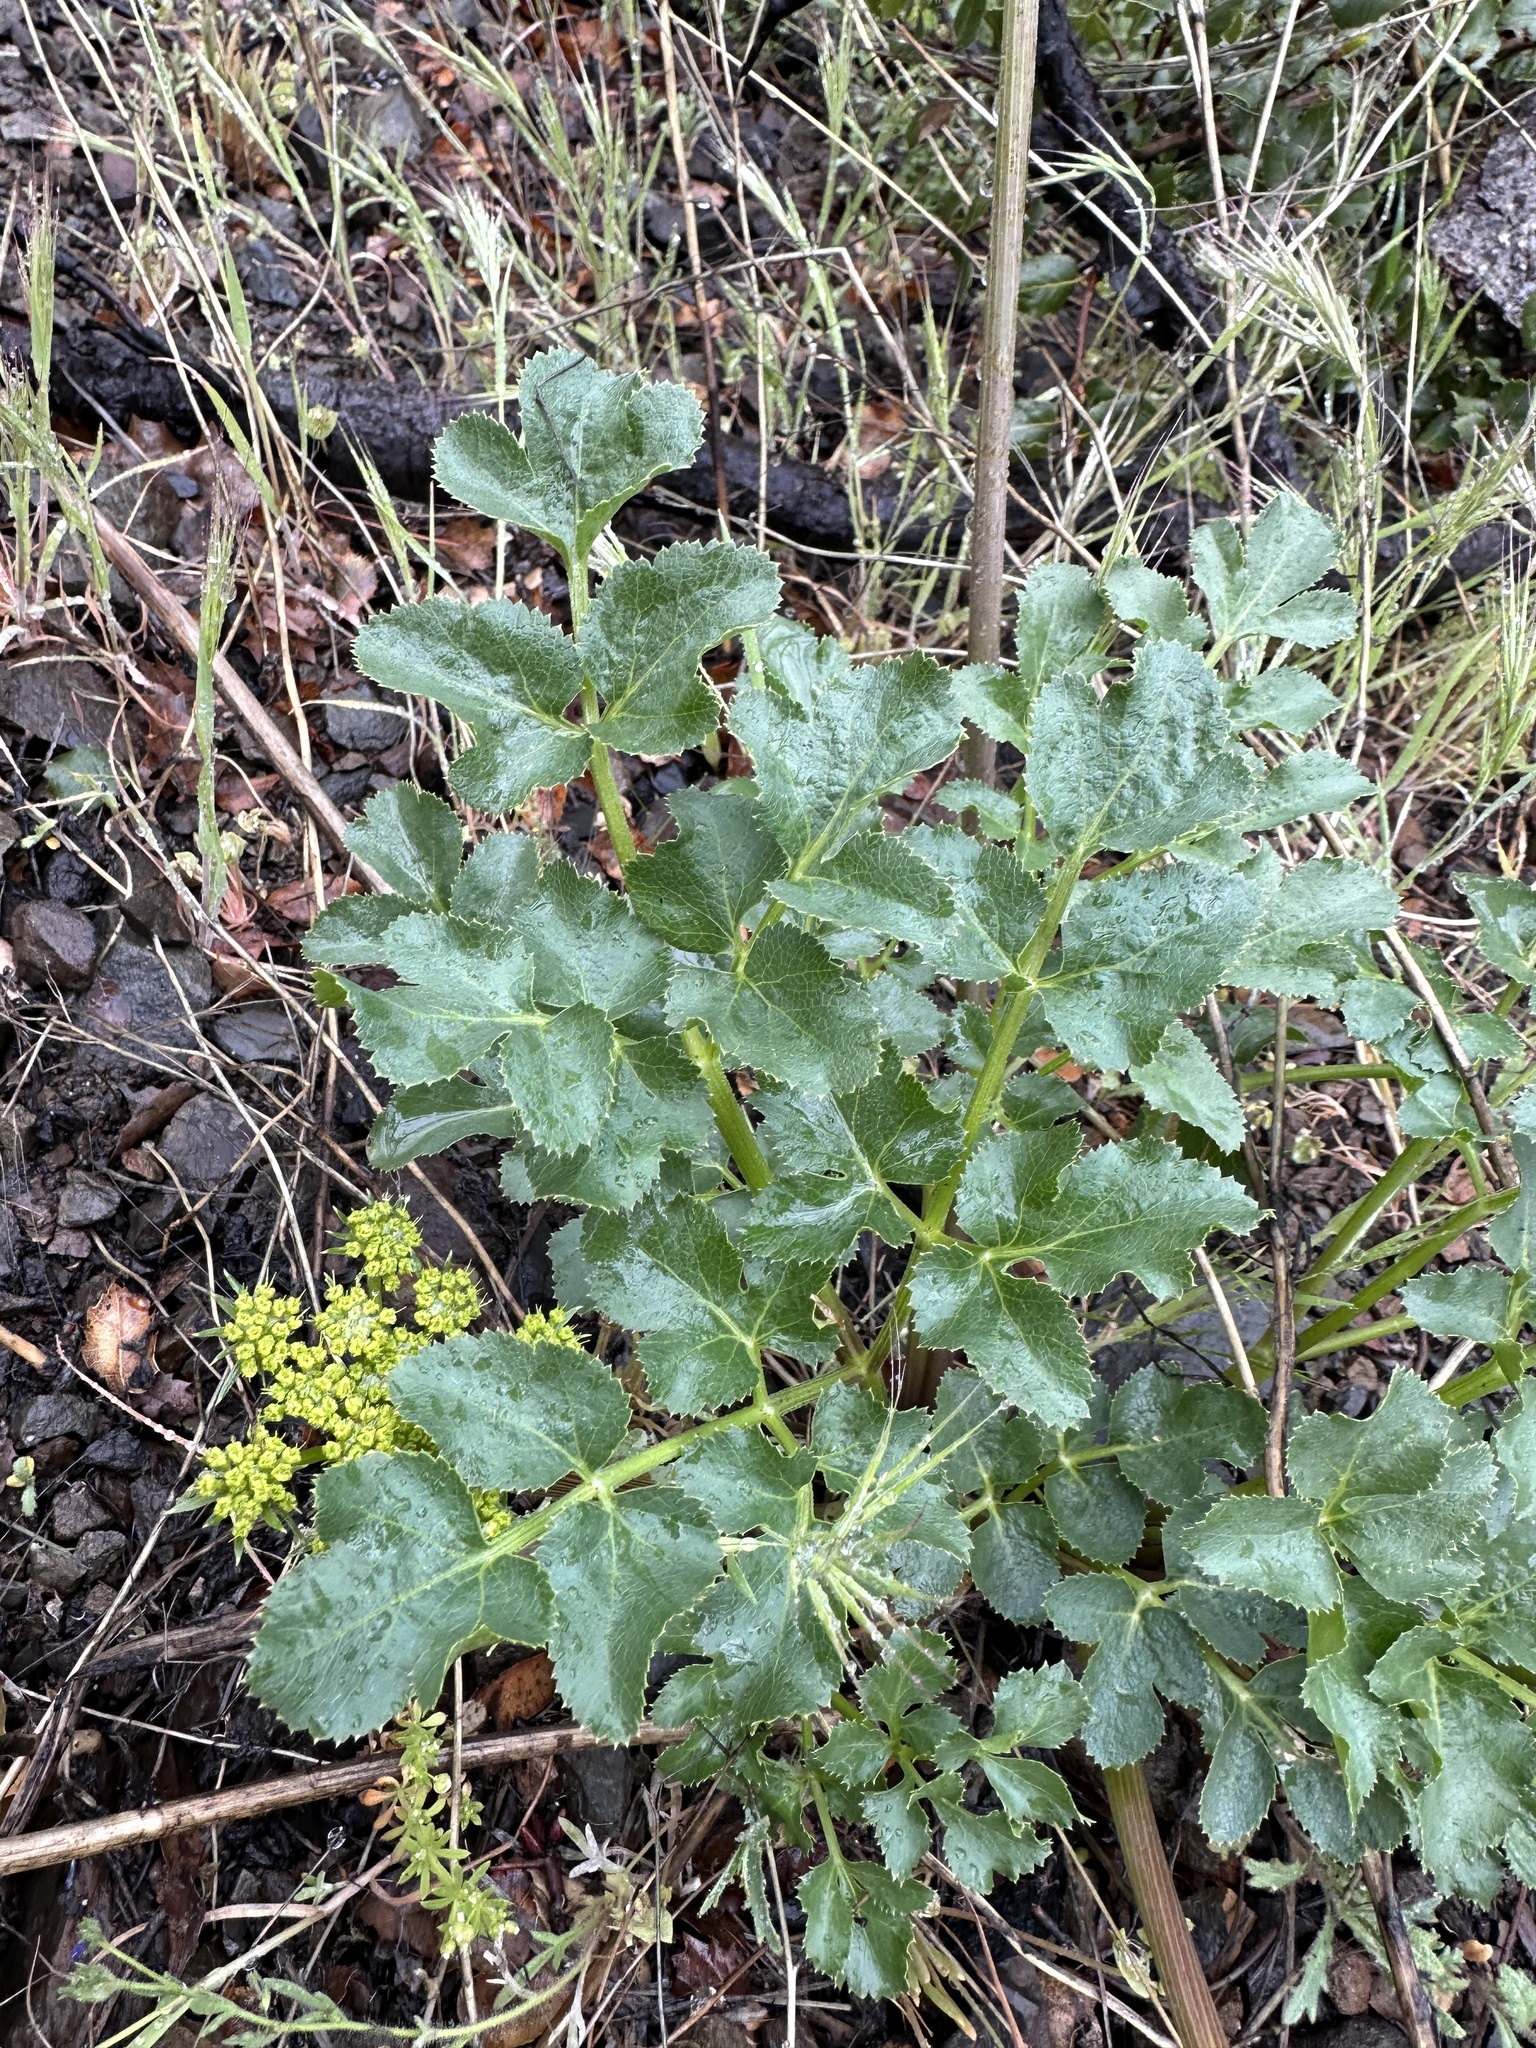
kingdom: Plantae
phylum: Tracheophyta
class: Magnoliopsida
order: Apiales
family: Apiaceae
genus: Tauschia
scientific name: Tauschia hartwegii
